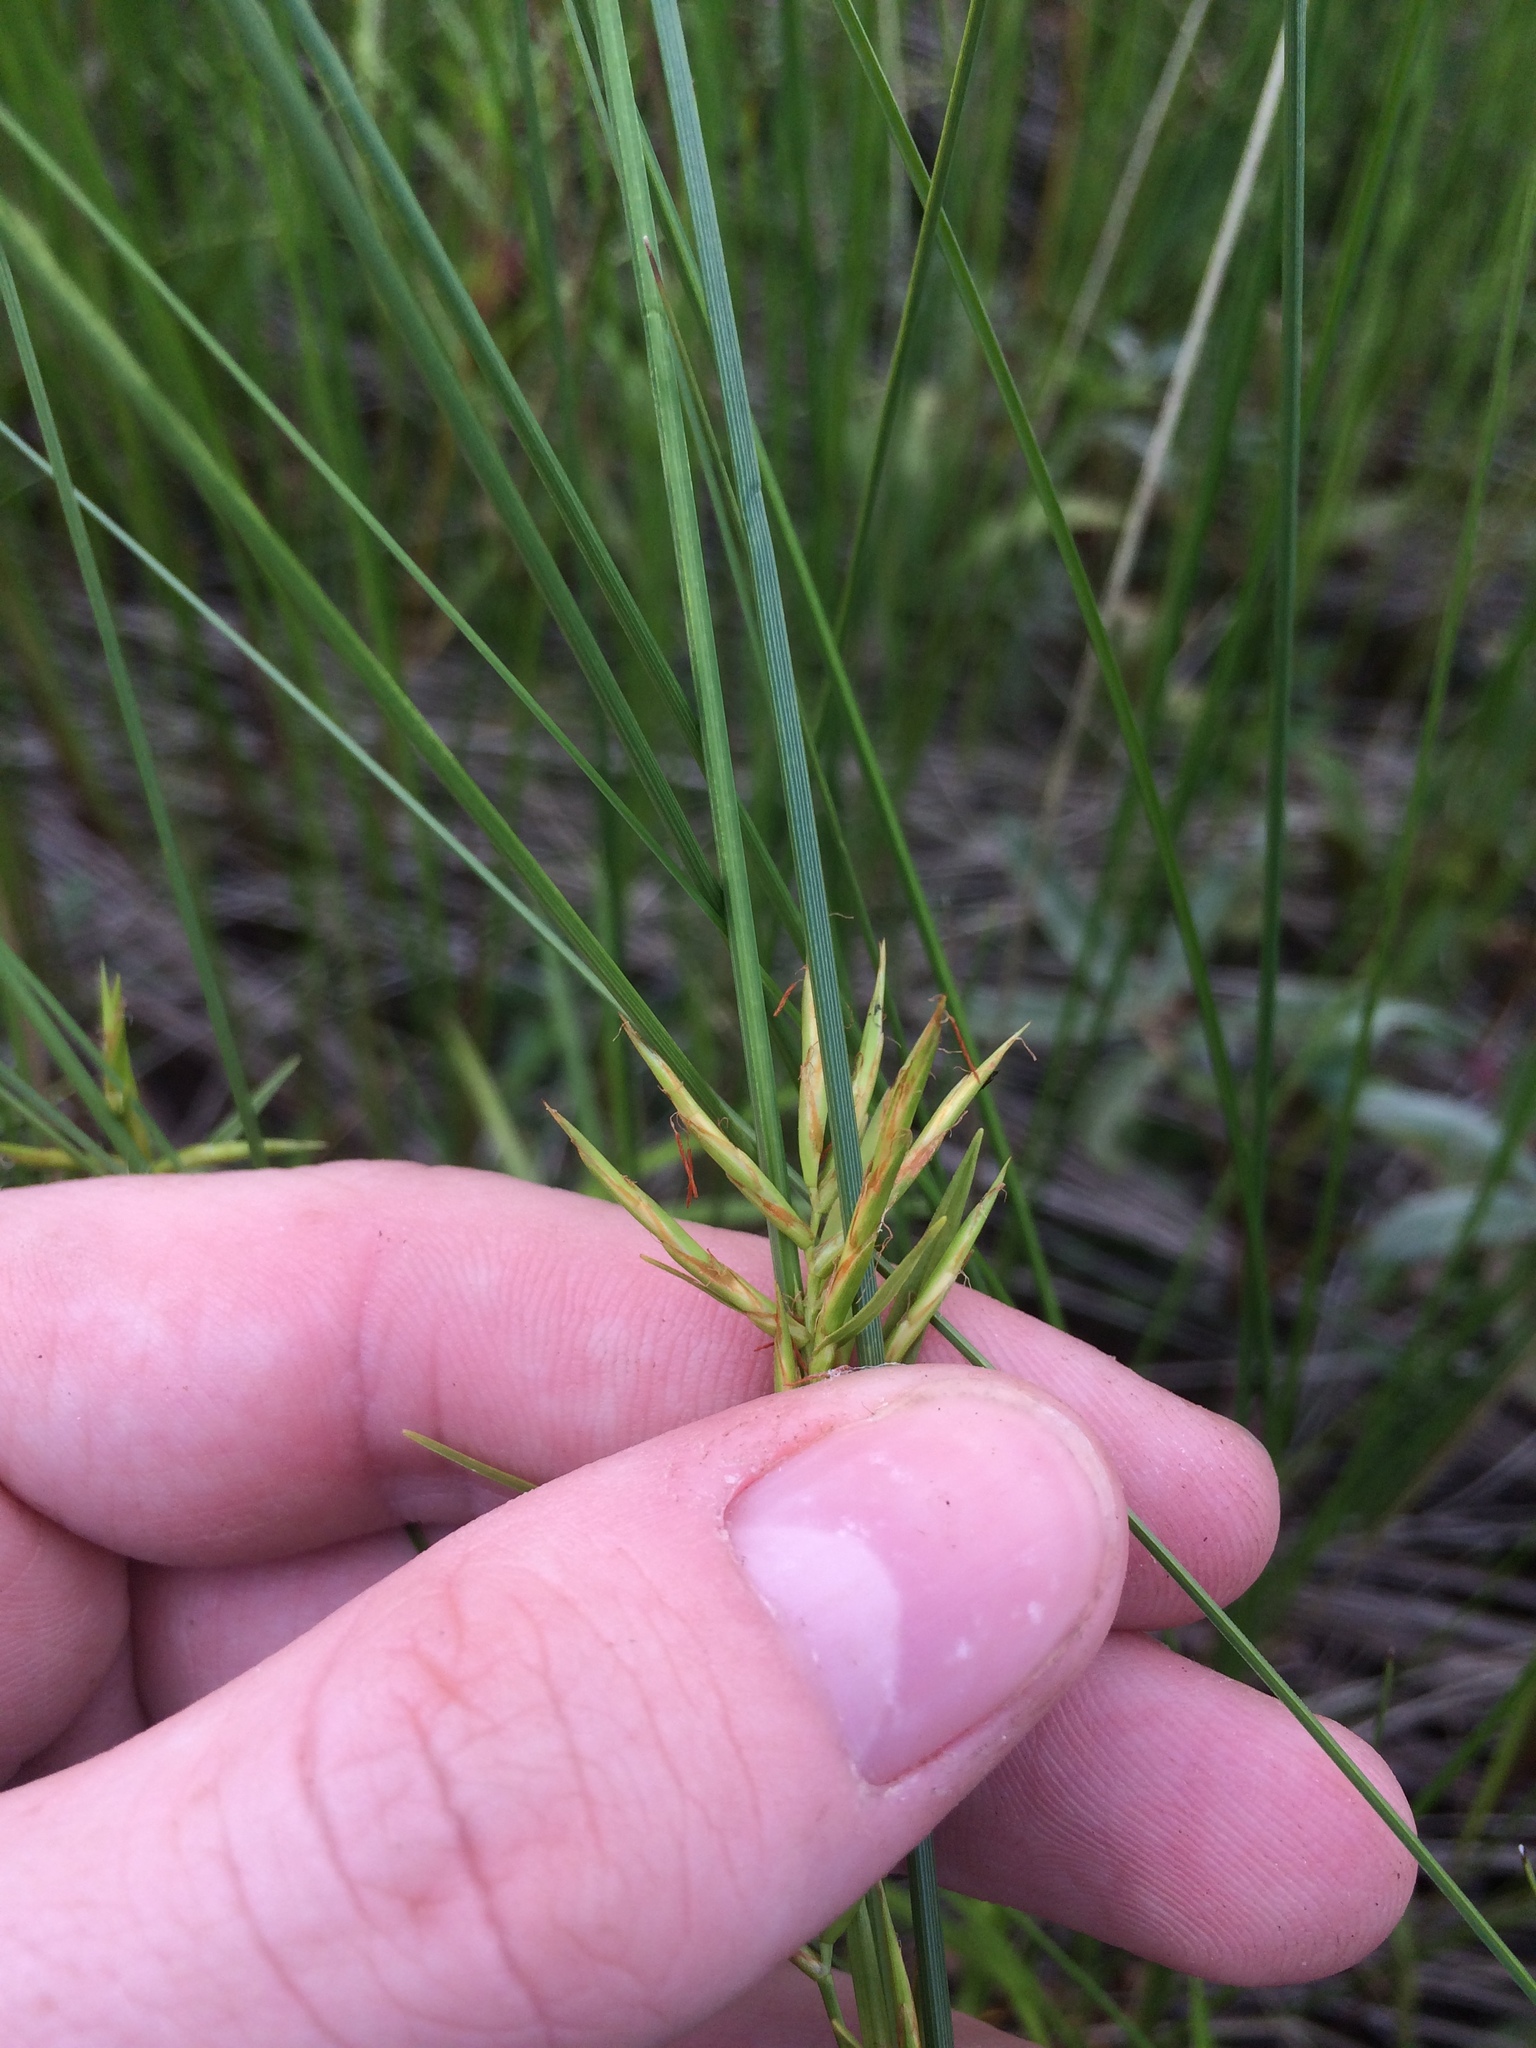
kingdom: Plantae
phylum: Tracheophyta
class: Liliopsida
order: Poales
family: Cyperaceae
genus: Dulichium
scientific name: Dulichium arundinaceum
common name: Three-way sedge
